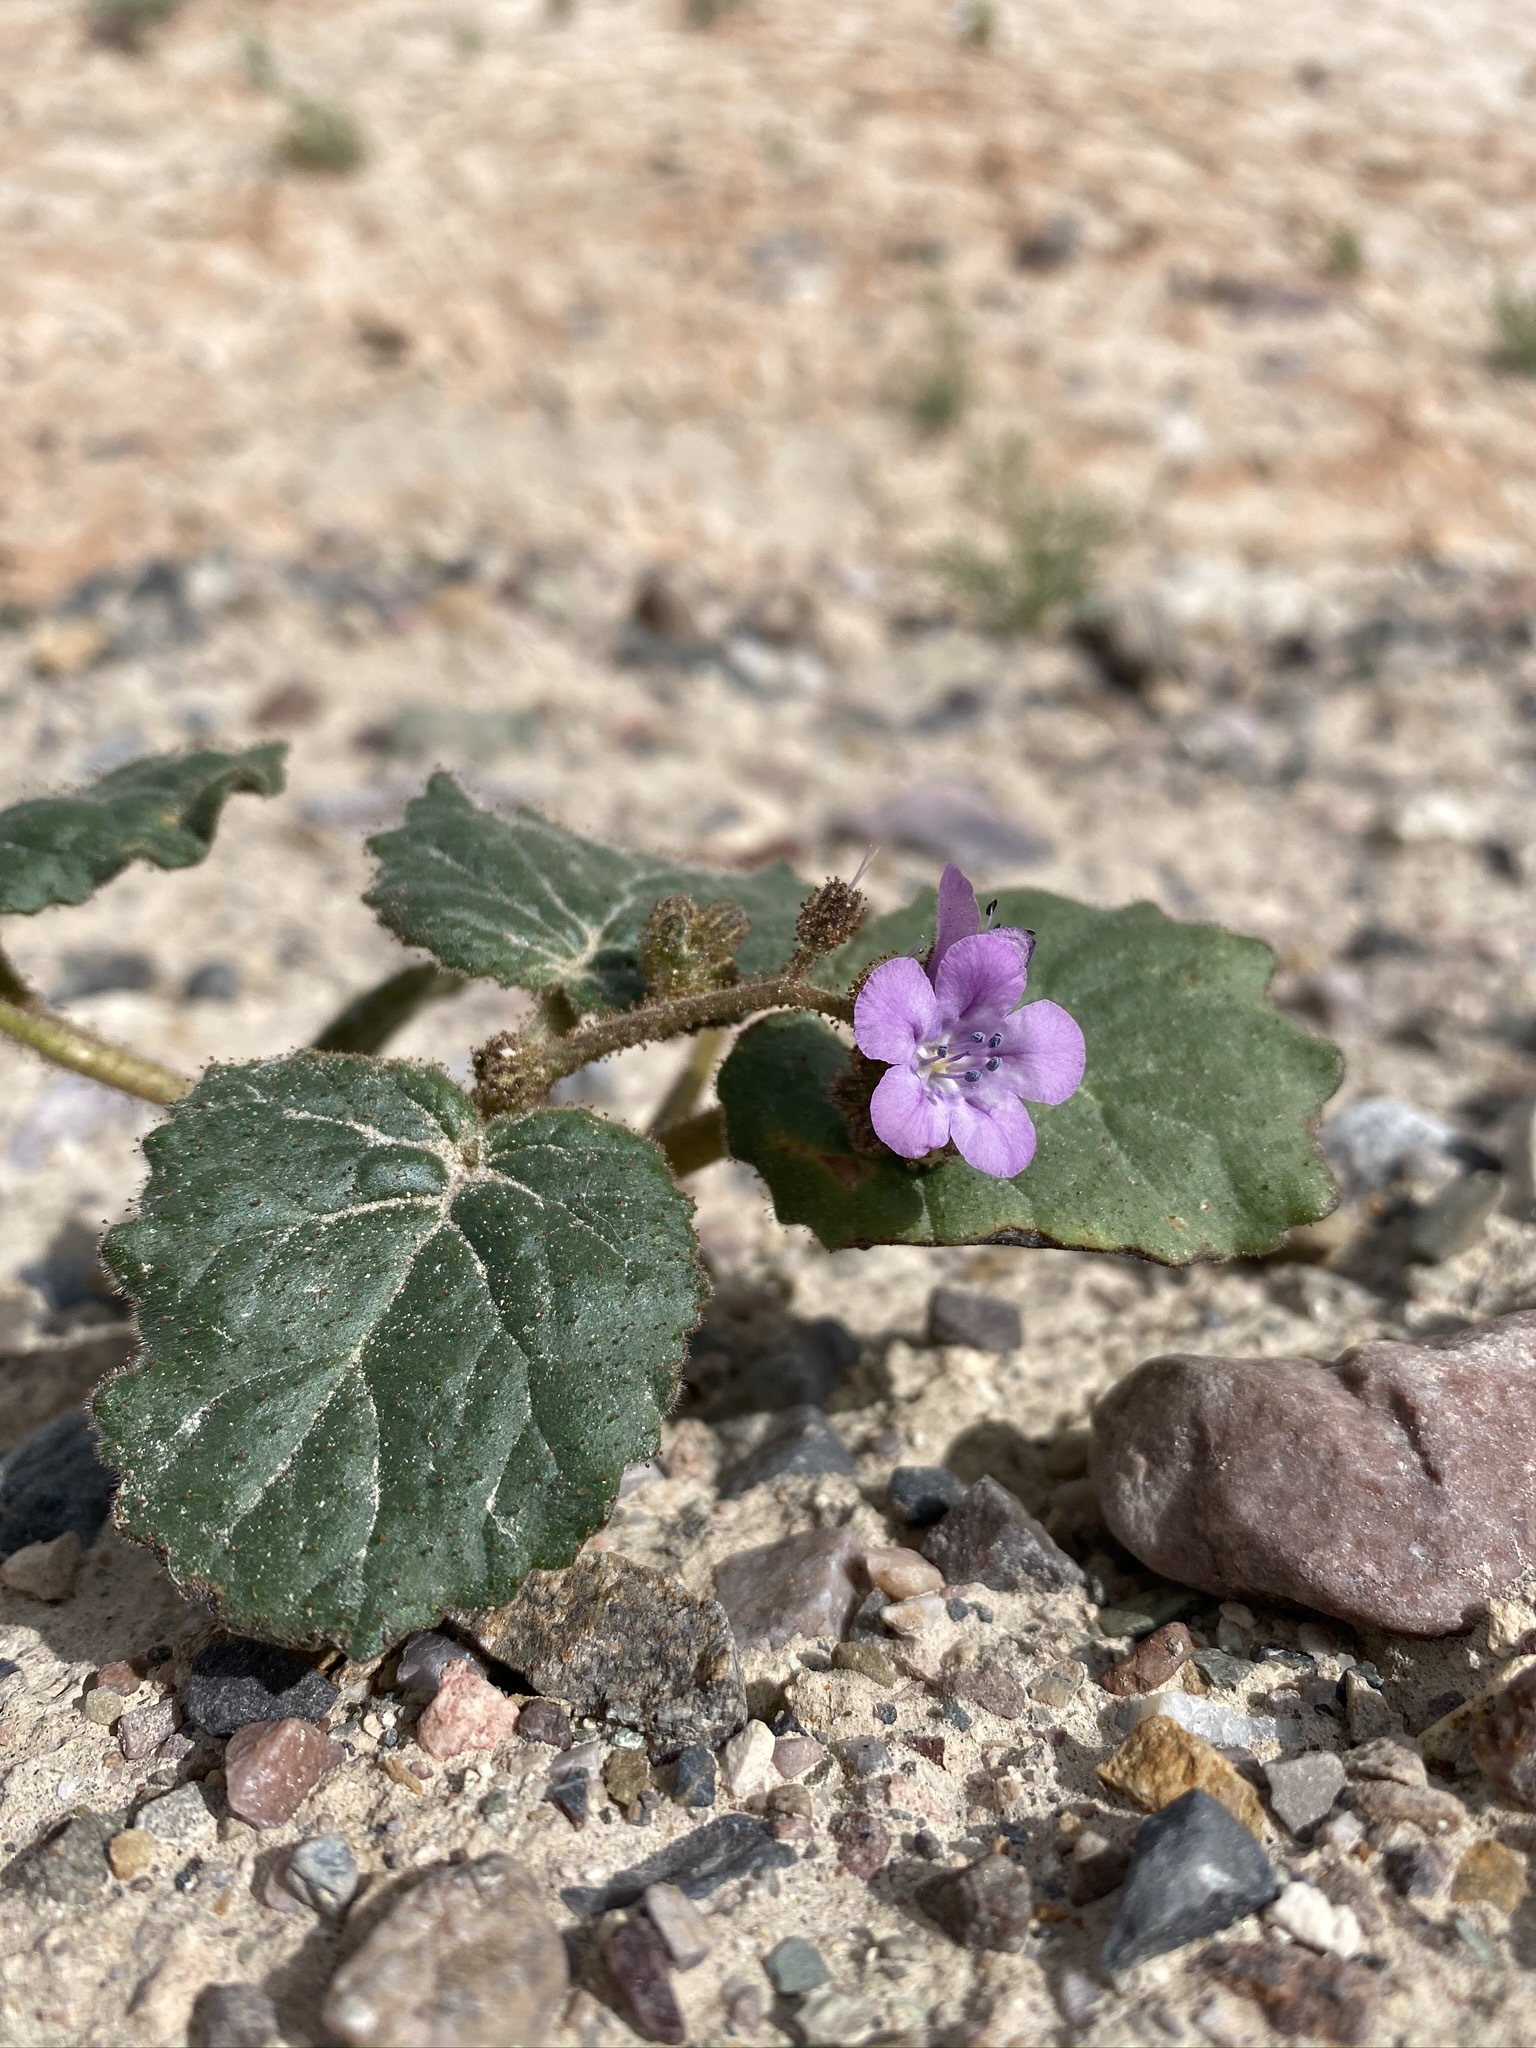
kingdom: Plantae
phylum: Tracheophyta
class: Magnoliopsida
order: Boraginales
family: Hydrophyllaceae
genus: Phacelia
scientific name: Phacelia calthifolia
